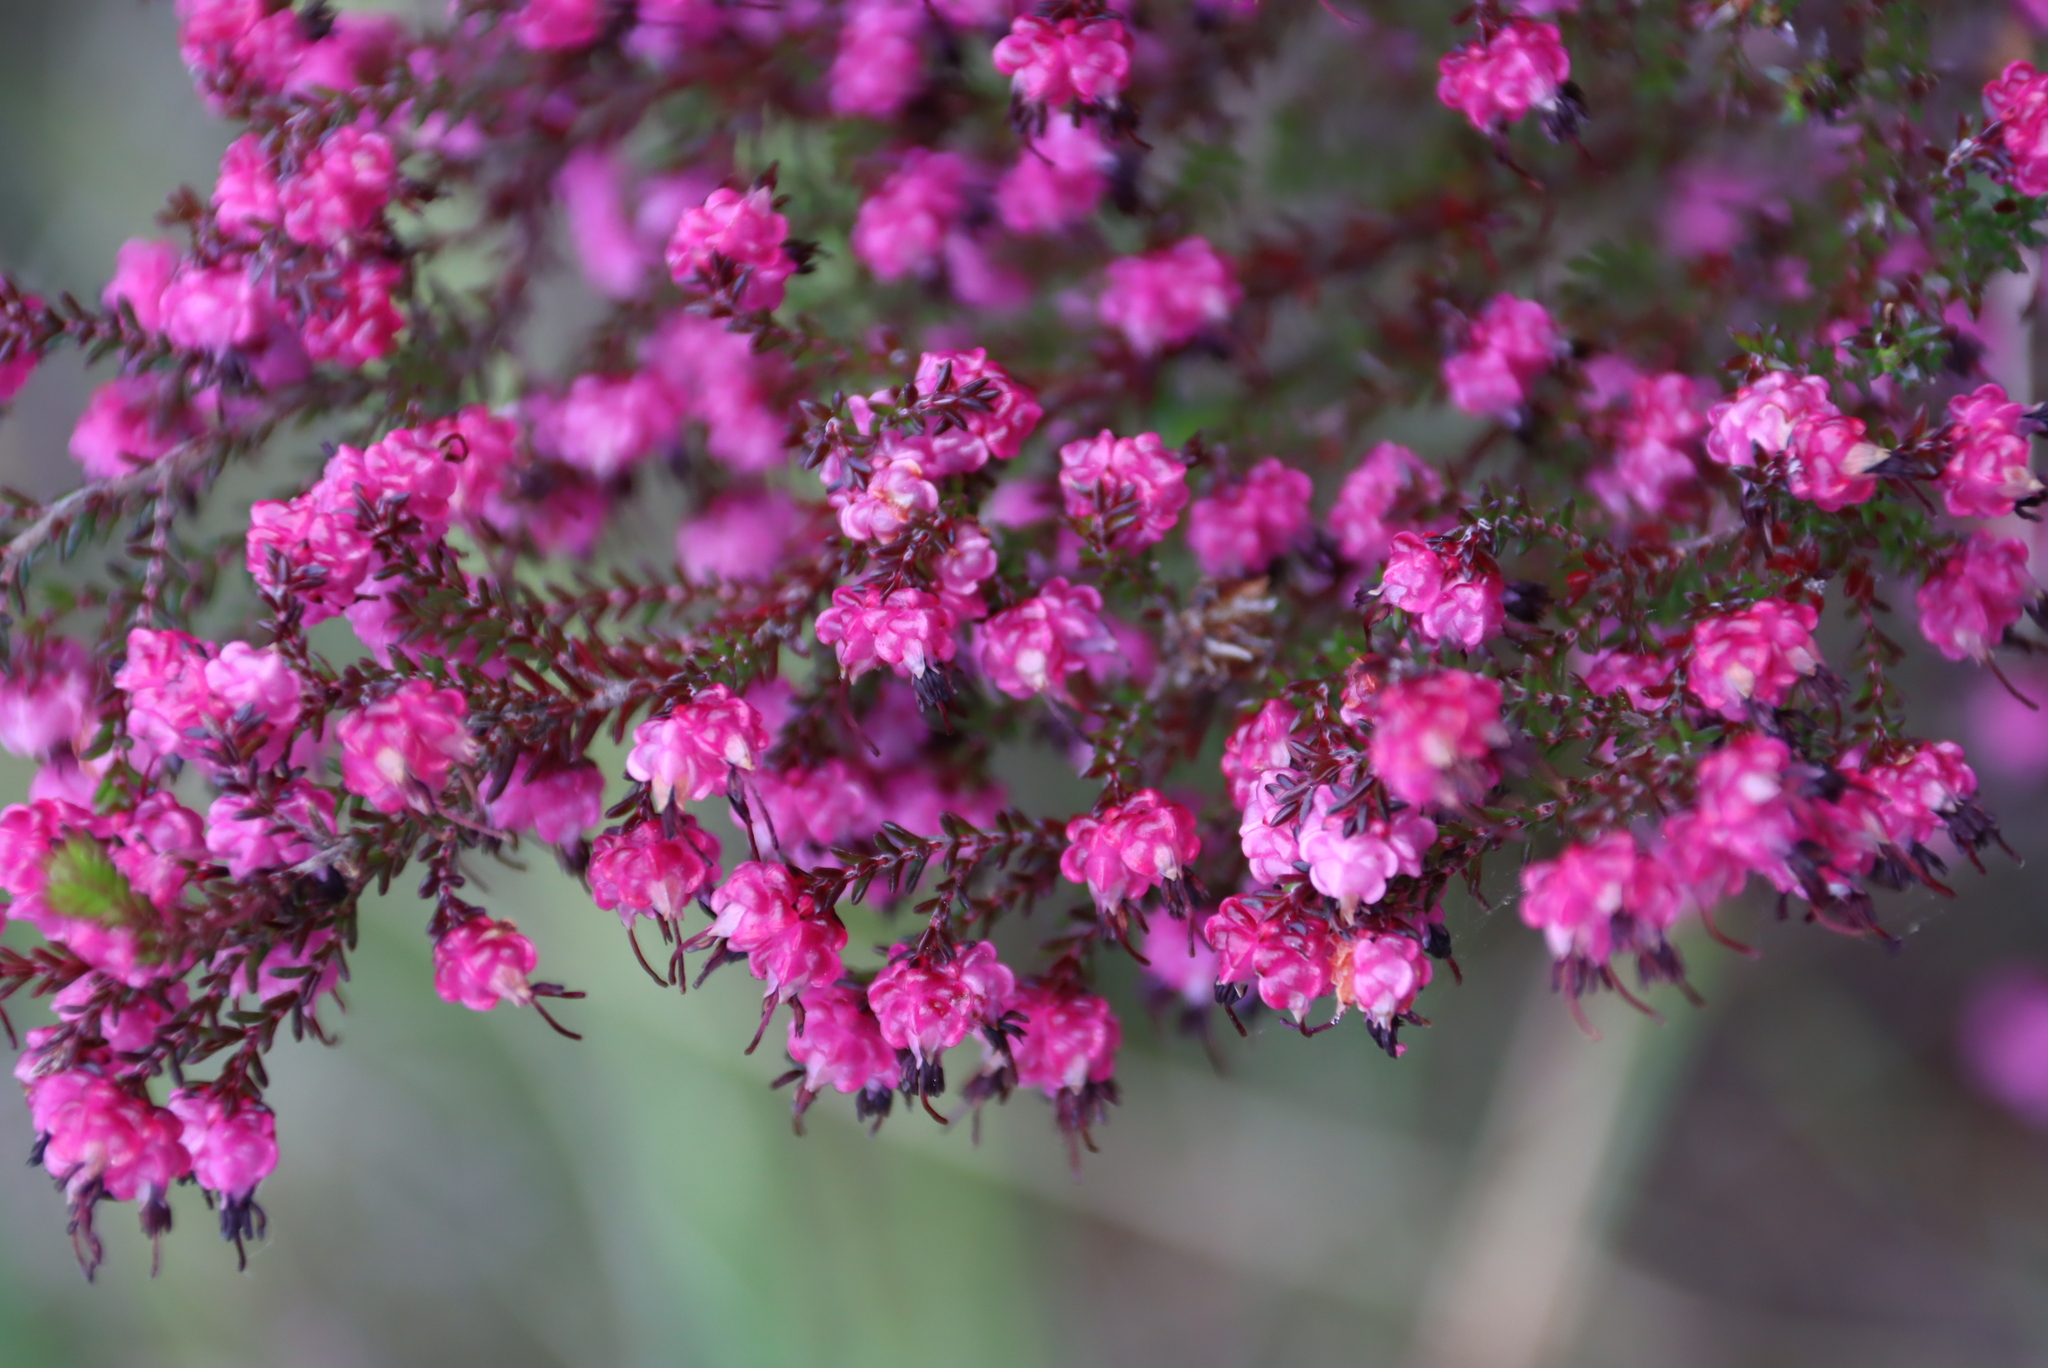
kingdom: Plantae
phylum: Tracheophyta
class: Magnoliopsida
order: Ericales
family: Ericaceae
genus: Erica
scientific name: Erica spumosa
